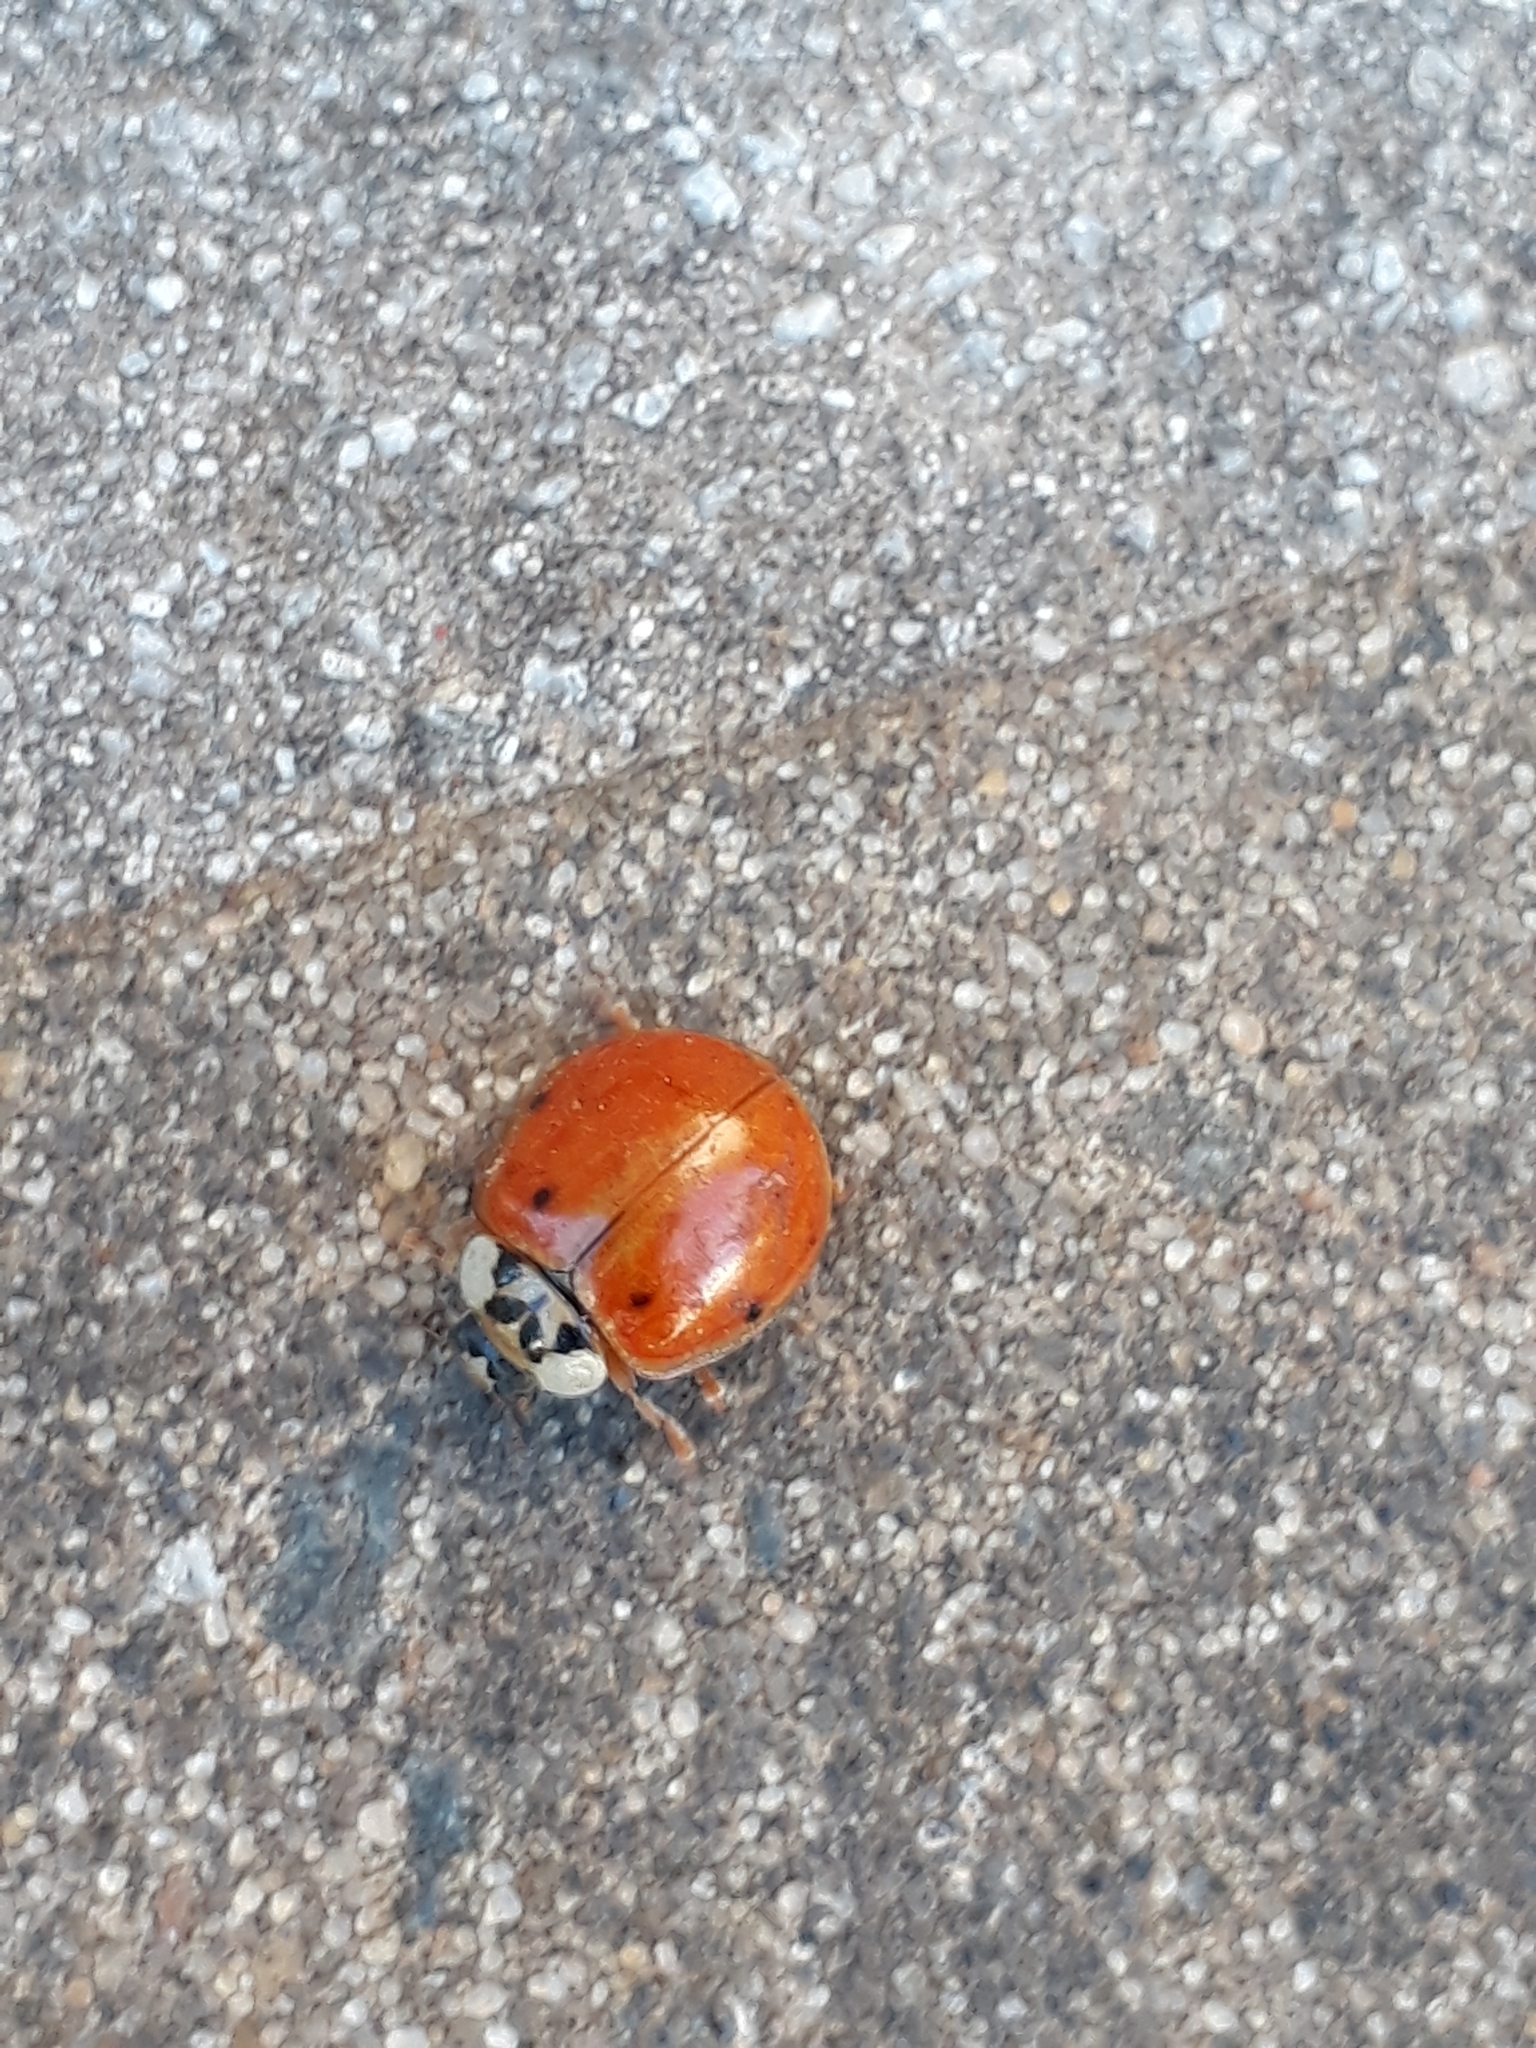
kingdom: Animalia
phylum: Arthropoda
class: Insecta
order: Coleoptera
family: Coccinellidae
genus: Harmonia
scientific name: Harmonia axyridis
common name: Harlequin ladybird
